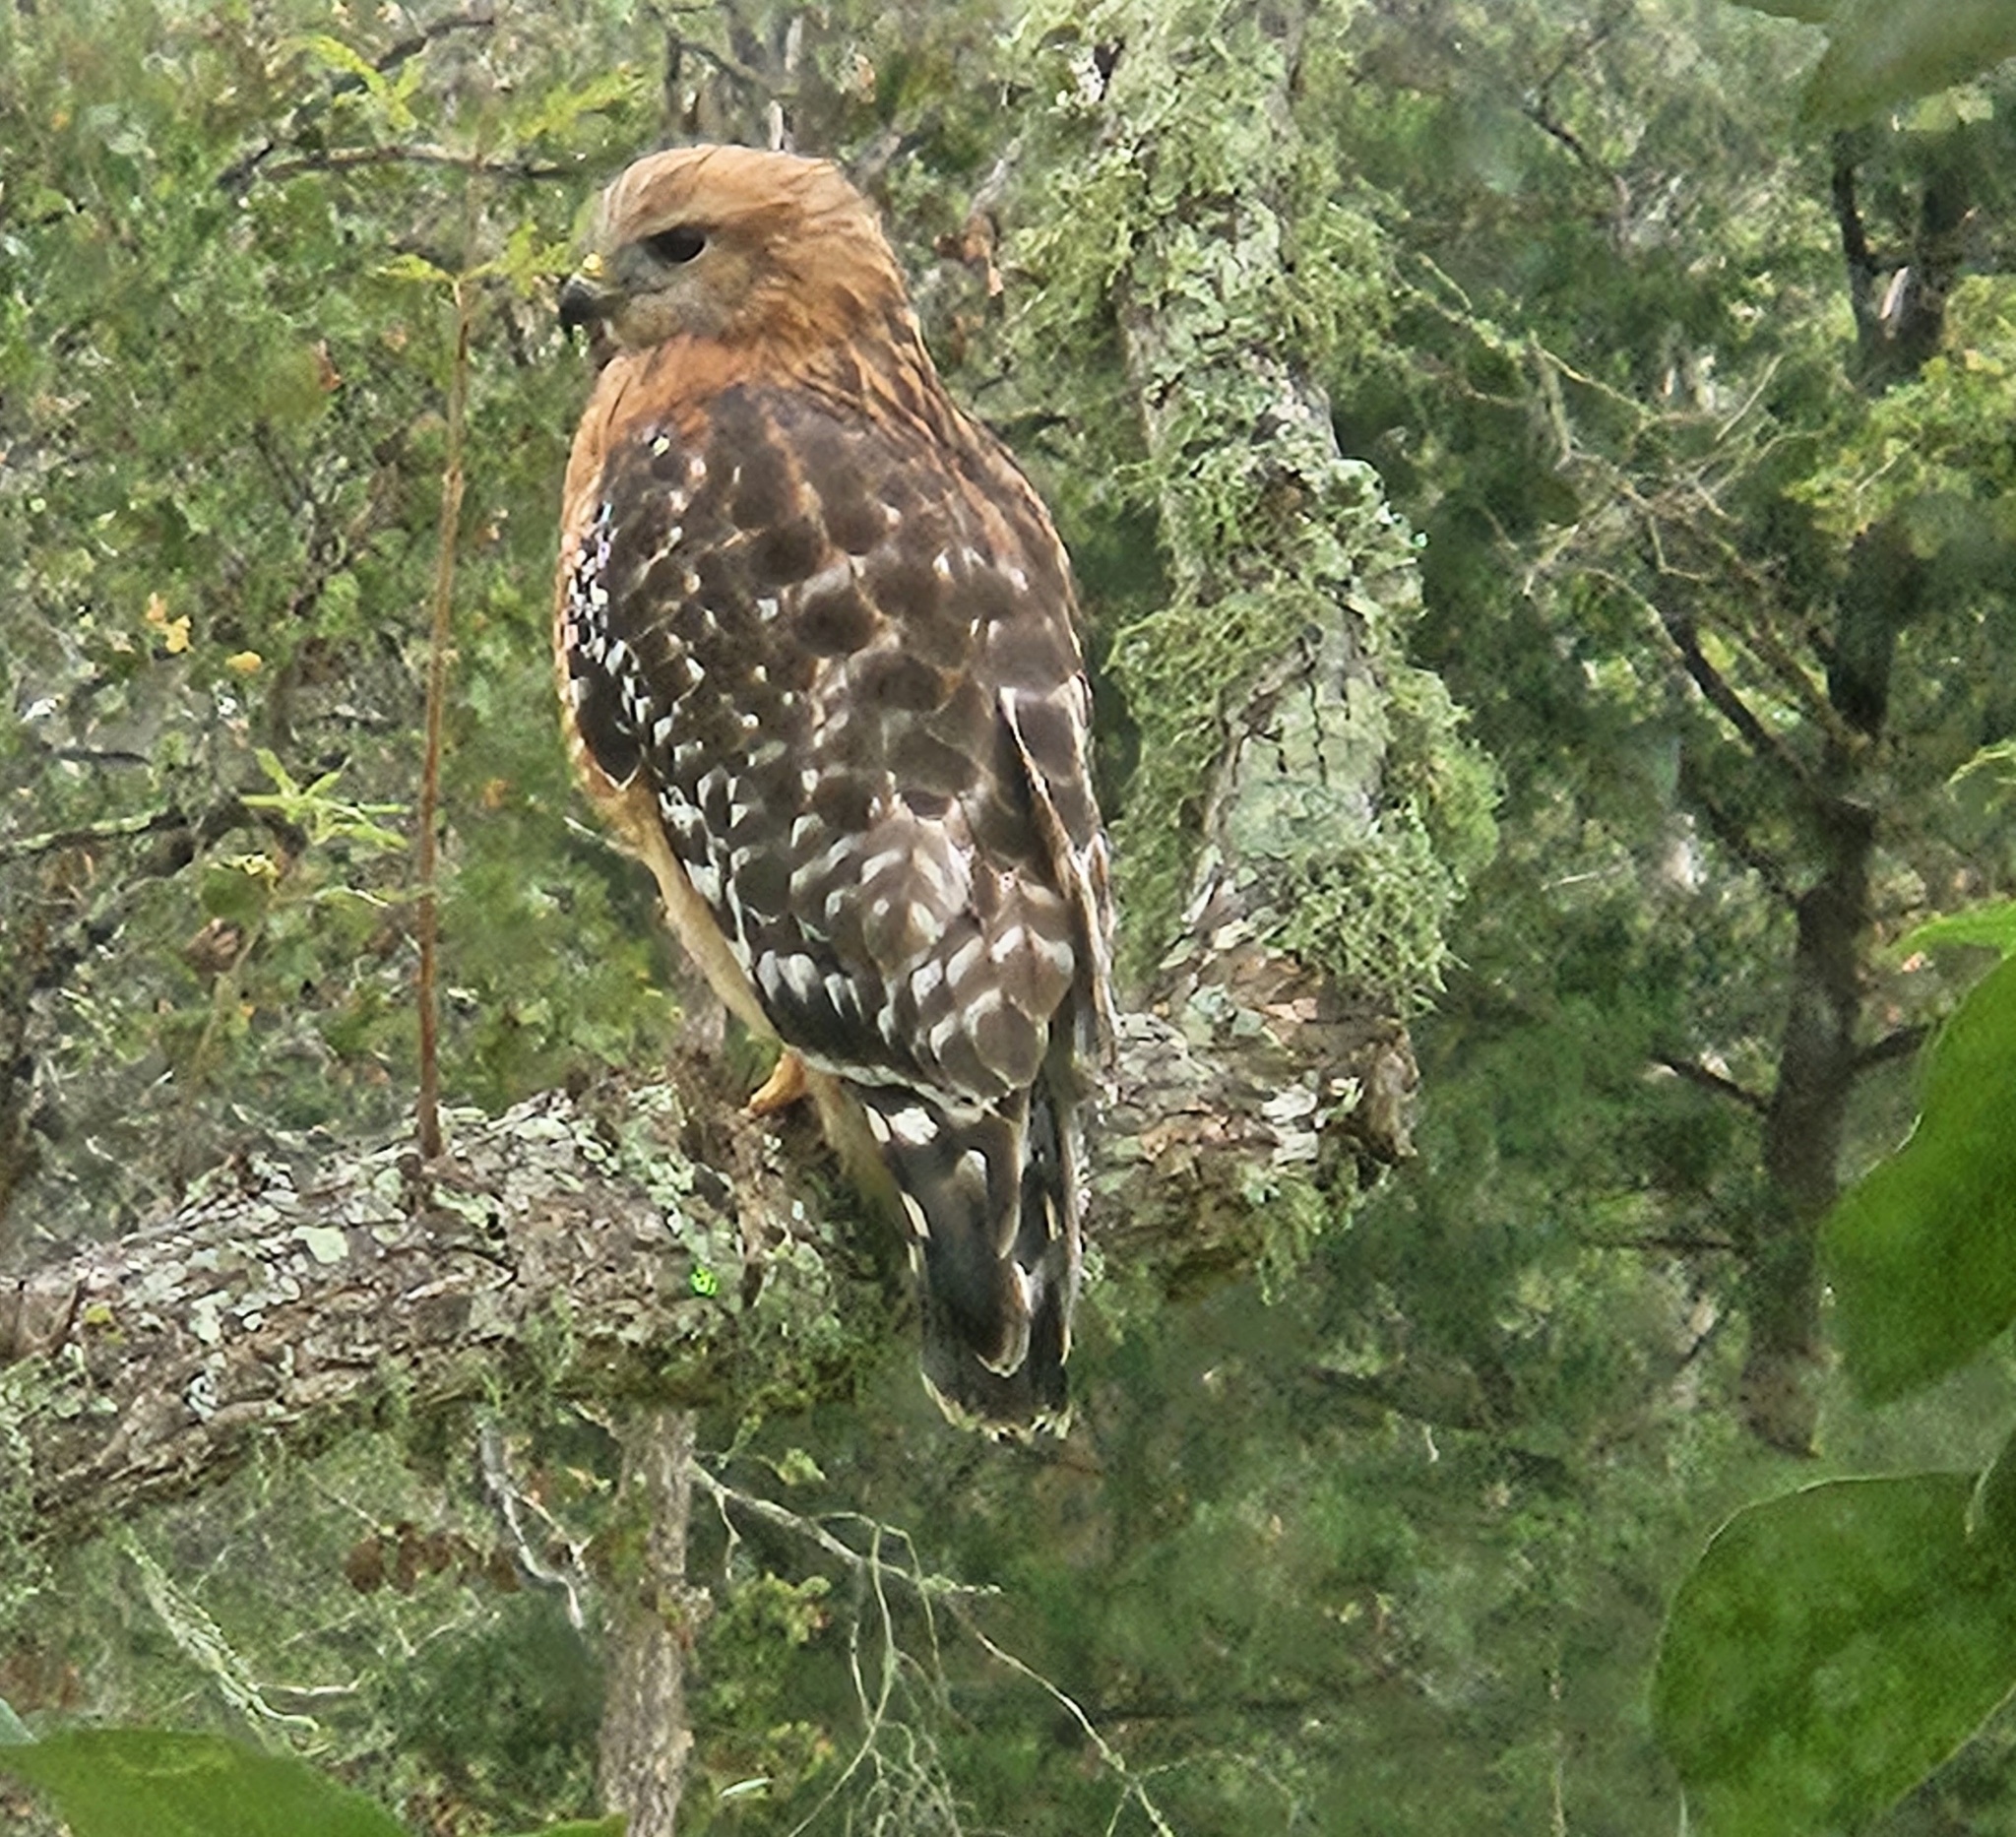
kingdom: Animalia
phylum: Chordata
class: Aves
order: Accipitriformes
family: Accipitridae
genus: Buteo
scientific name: Buteo lineatus
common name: Red-shouldered hawk
